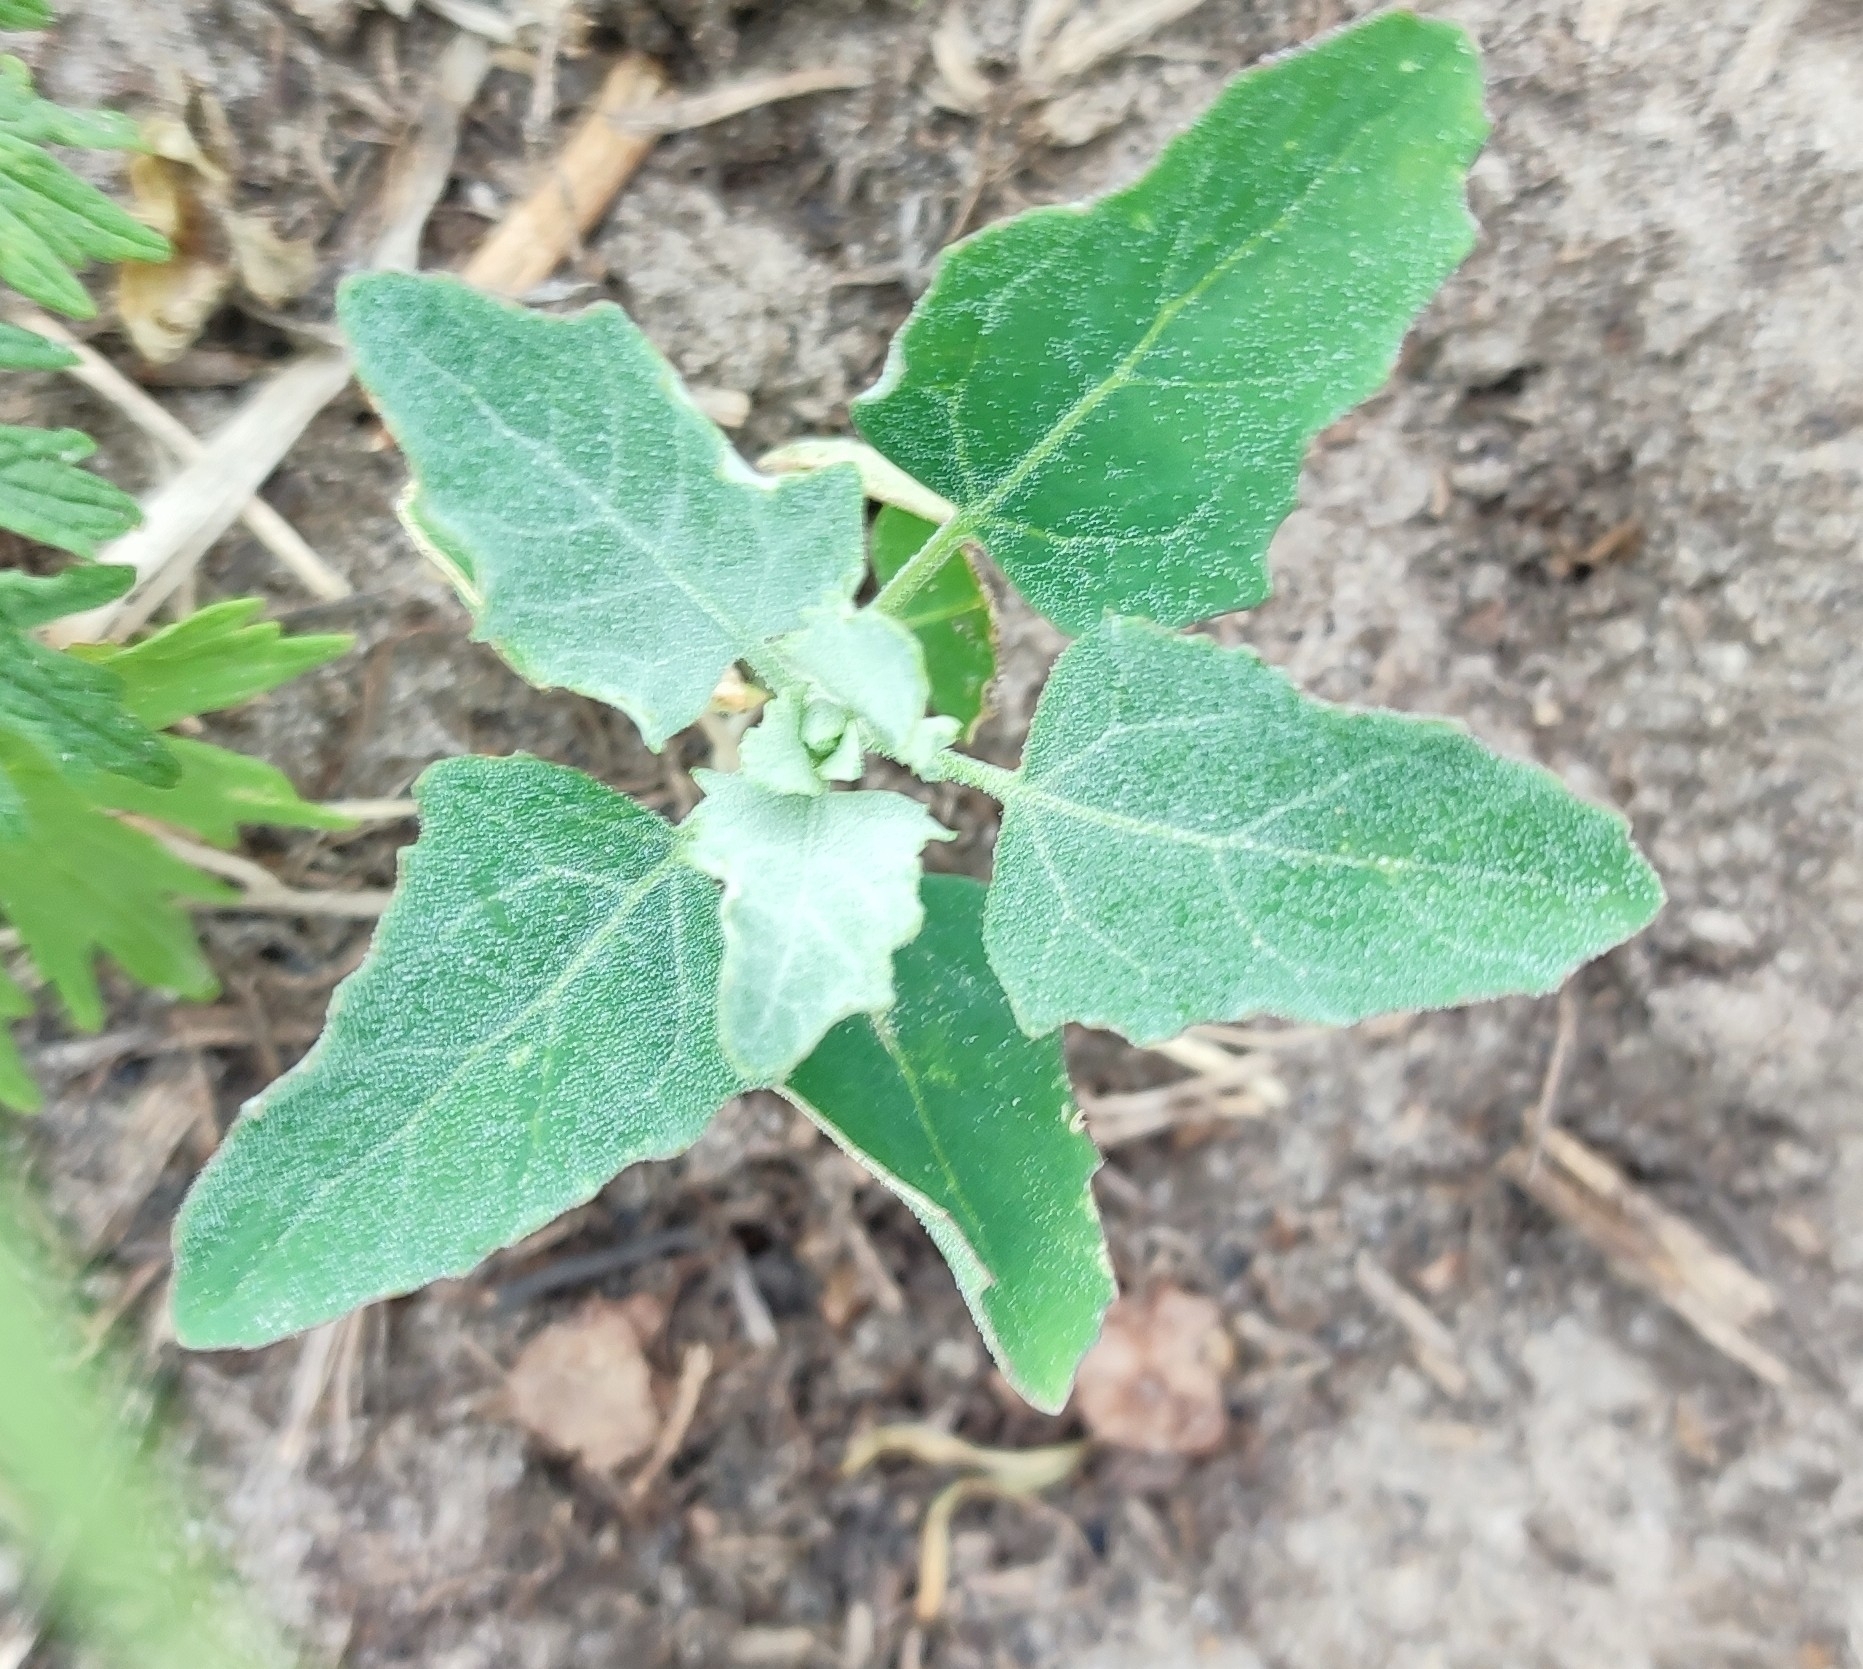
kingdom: Plantae
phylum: Tracheophyta
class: Magnoliopsida
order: Caryophyllales
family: Amaranthaceae
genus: Chenopodium
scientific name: Chenopodium album
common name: Fat-hen
